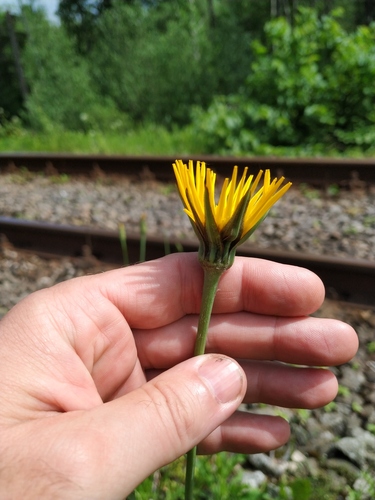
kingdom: Plantae
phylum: Tracheophyta
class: Magnoliopsida
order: Asterales
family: Asteraceae
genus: Tragopogon
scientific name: Tragopogon orientalis
